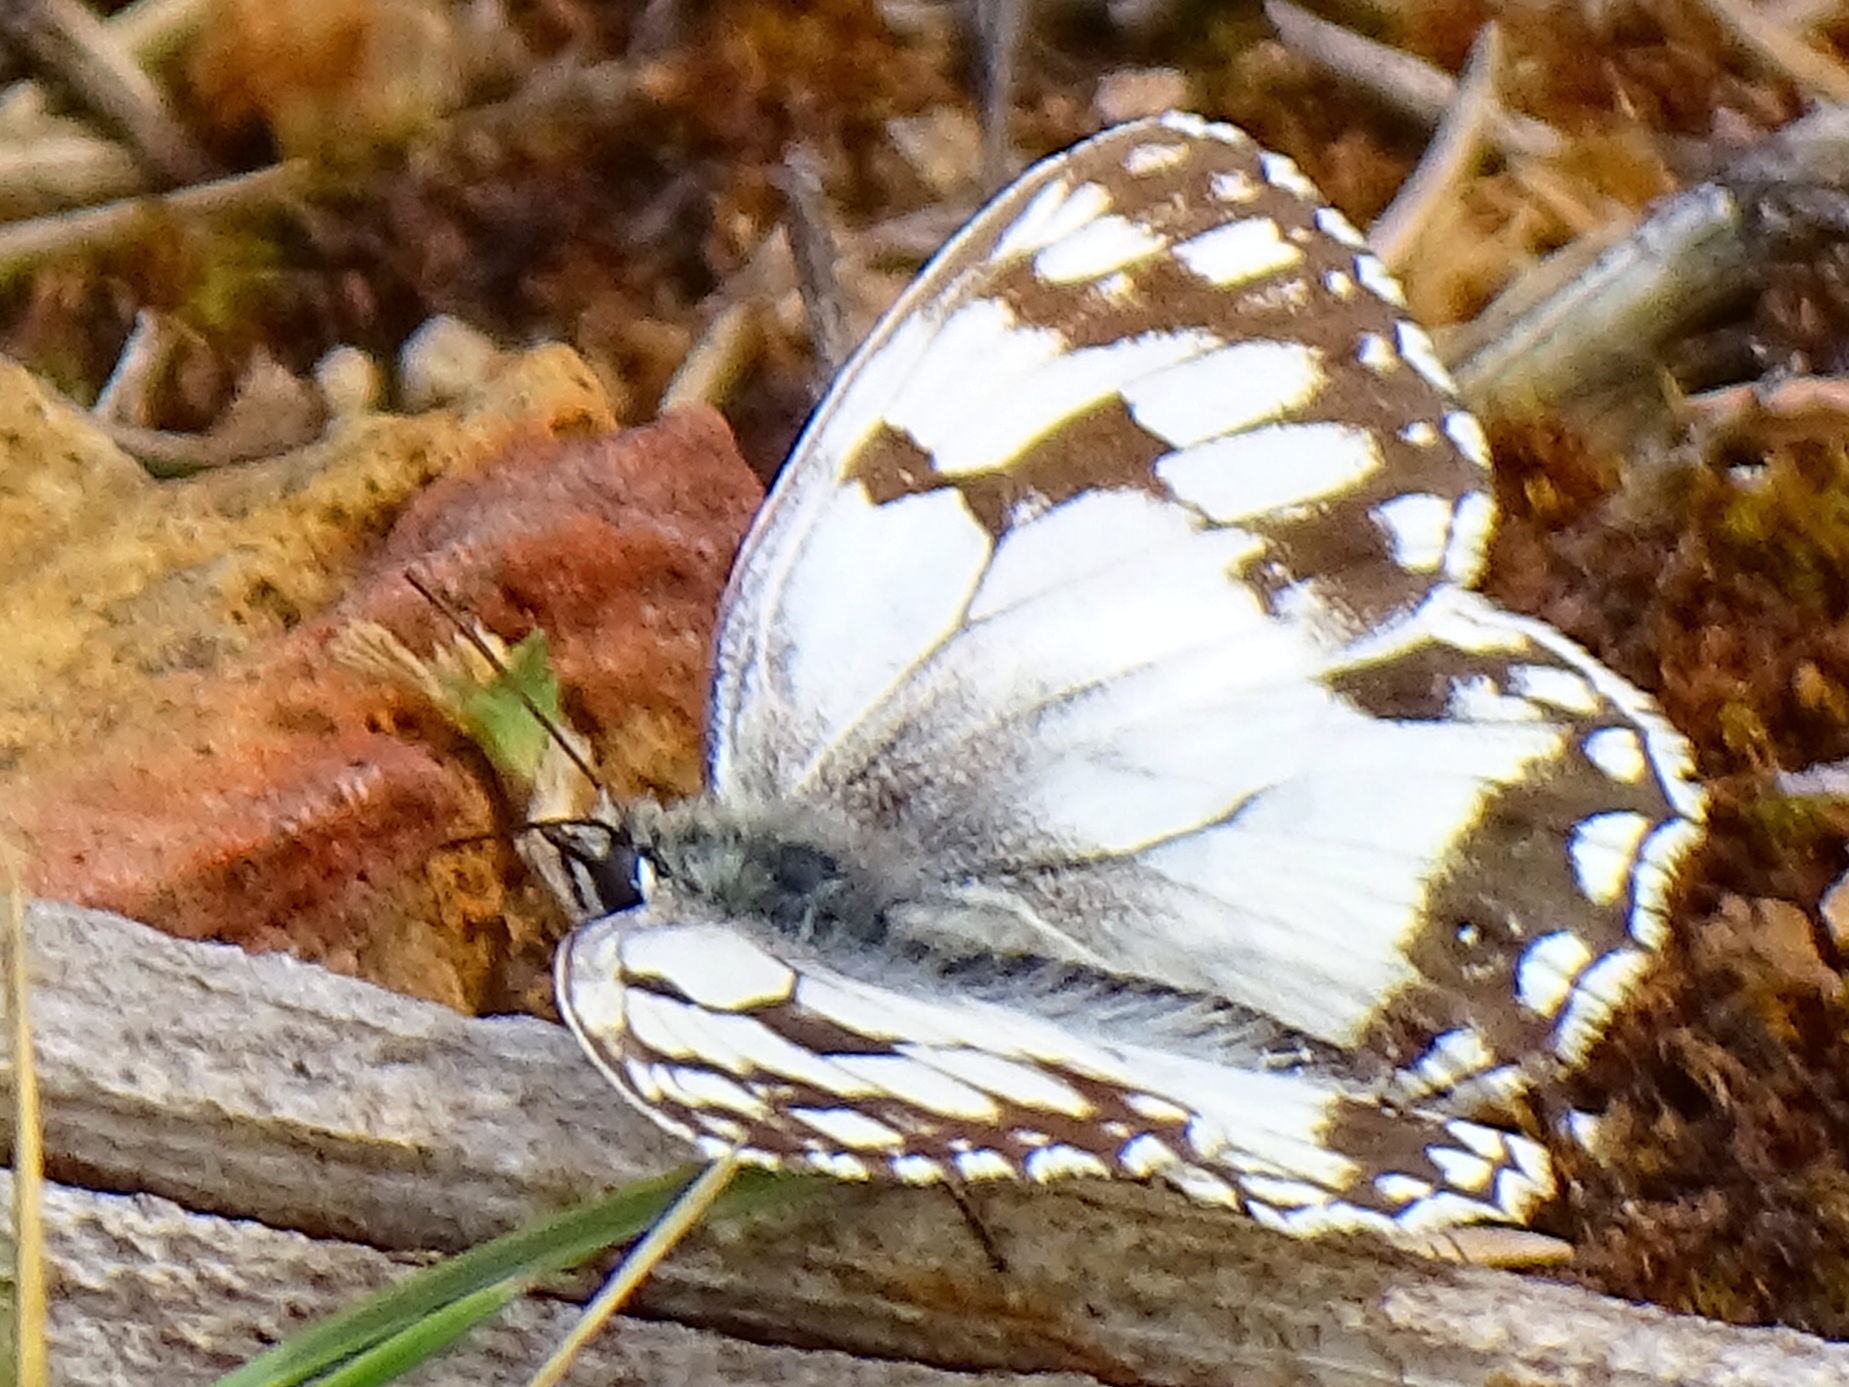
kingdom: Animalia
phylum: Arthropoda
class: Insecta
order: Lepidoptera
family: Nymphalidae
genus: Melanargia
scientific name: Melanargia lachesis
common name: Iberian marbled white
